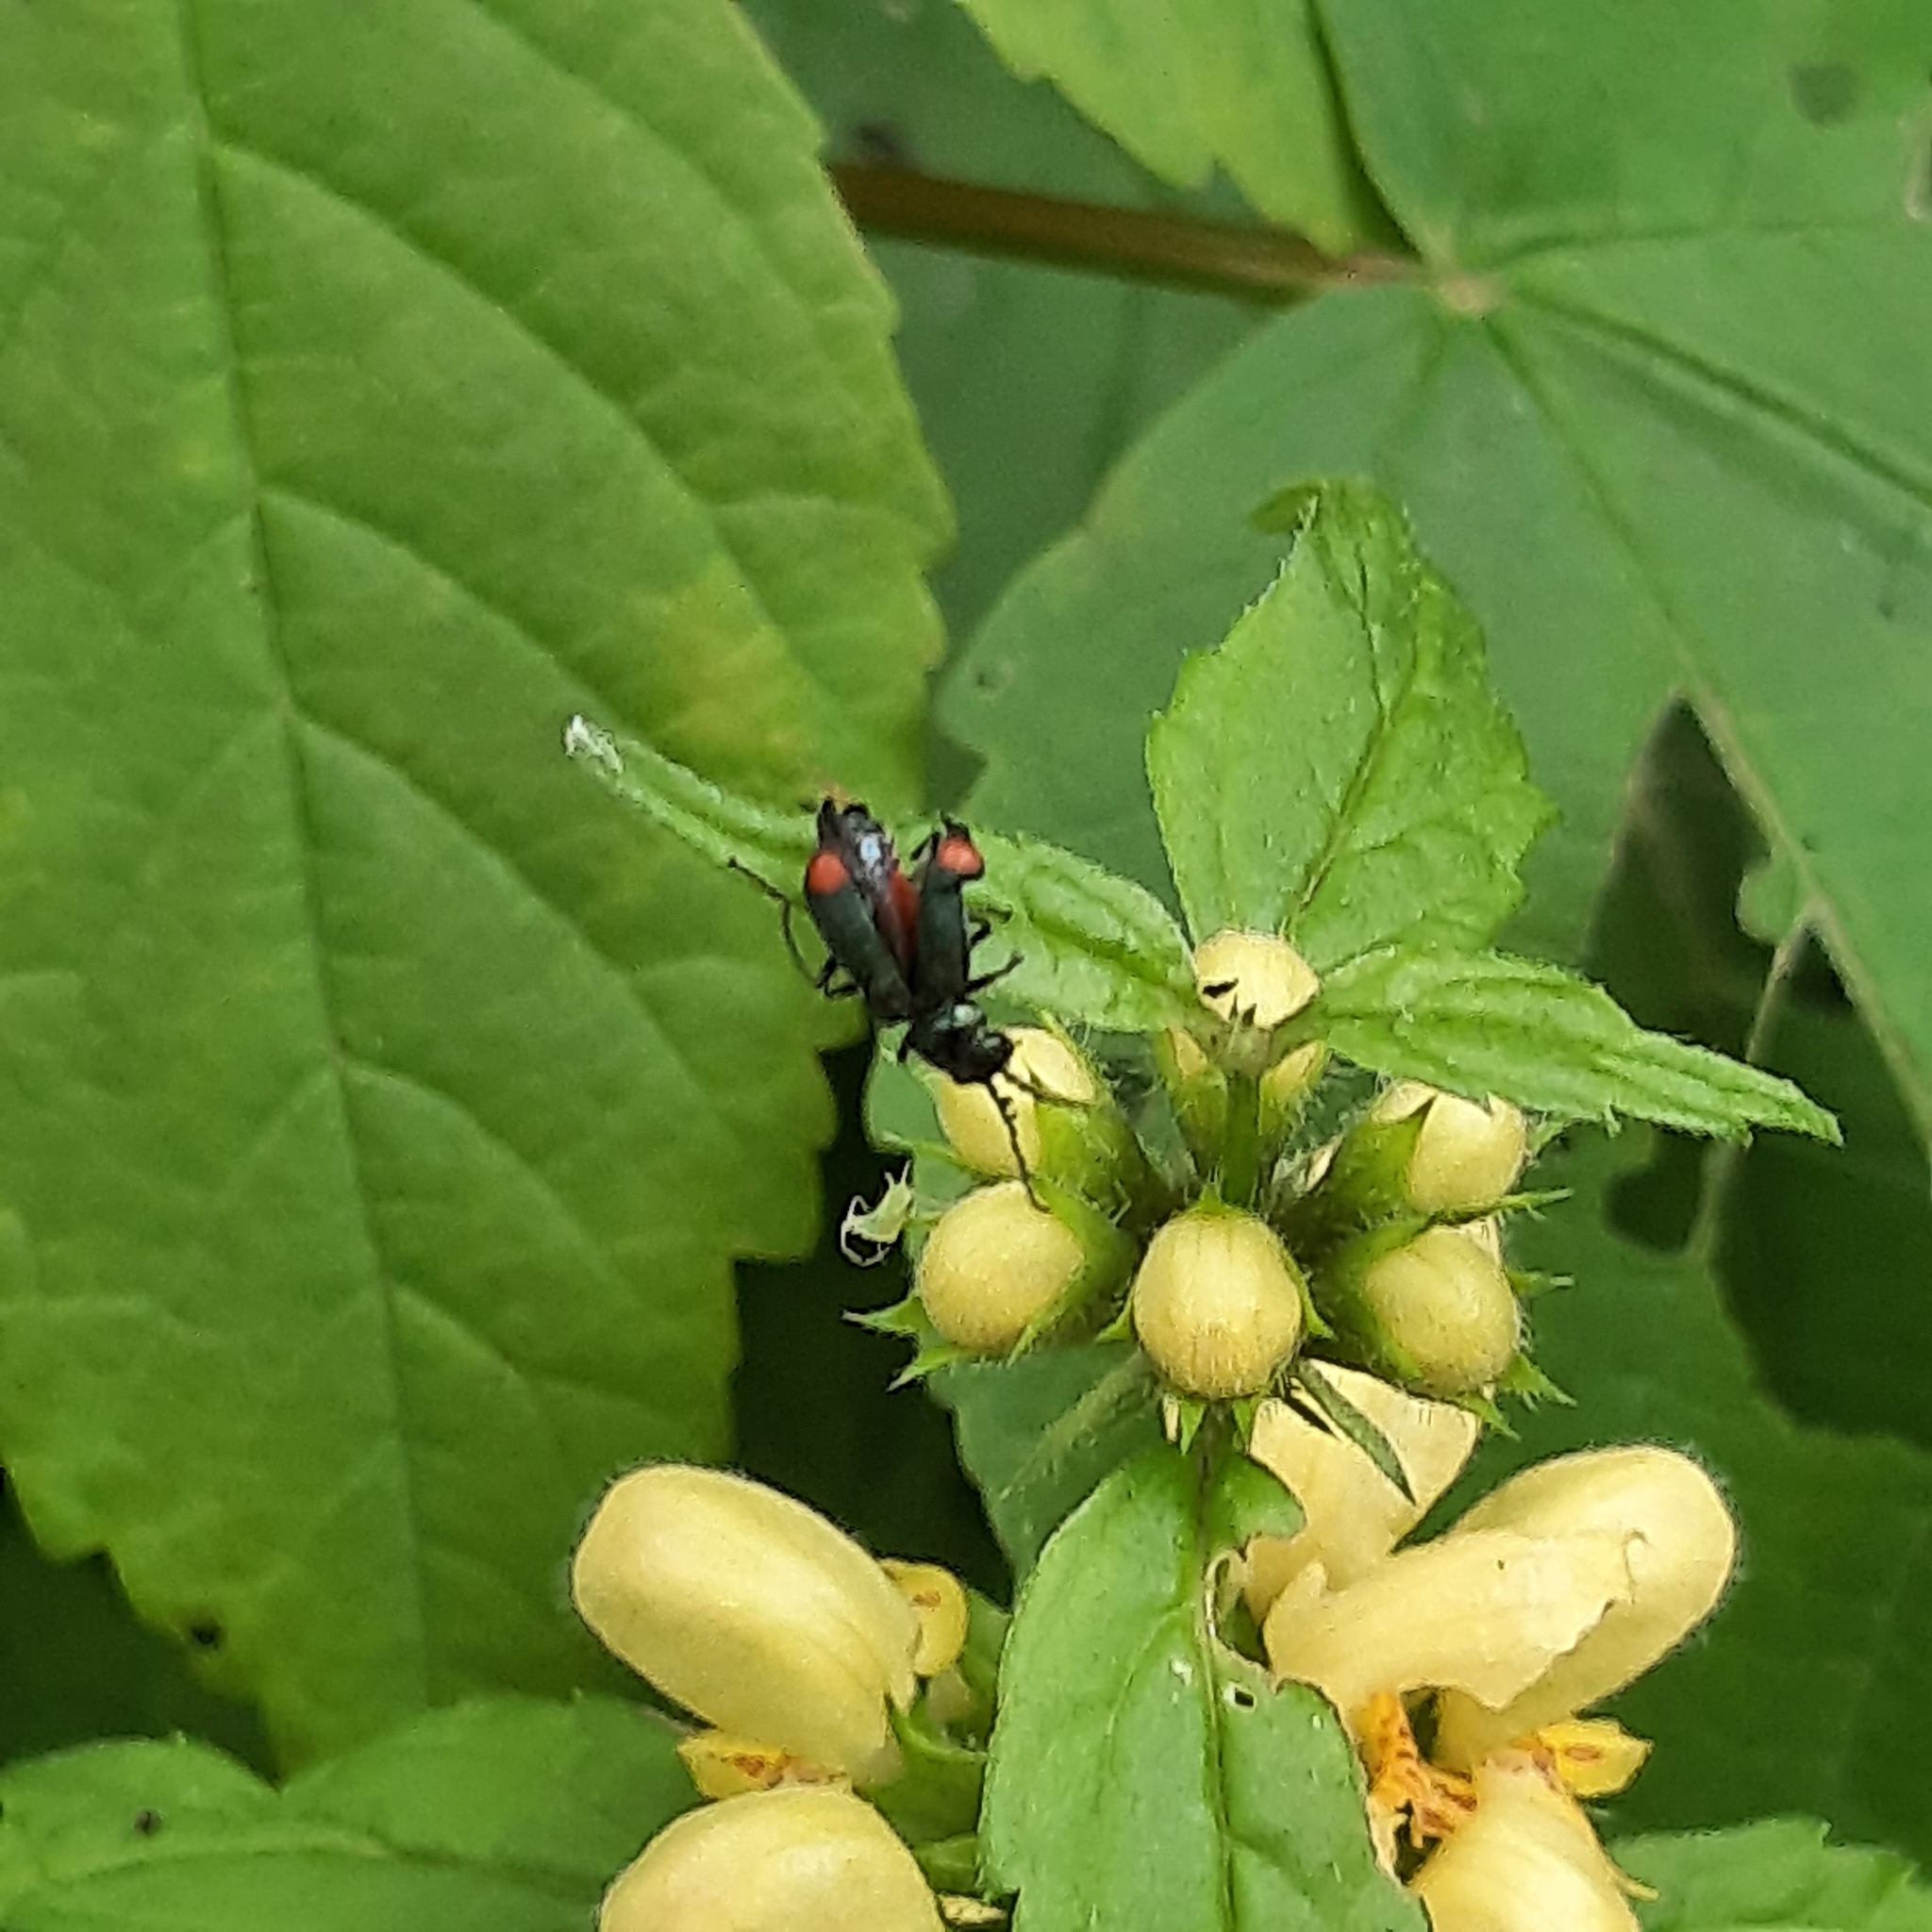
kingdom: Animalia
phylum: Arthropoda
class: Insecta
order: Coleoptera
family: Melyridae
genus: Malachius
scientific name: Malachius bipustulatus
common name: Malachite beetle
